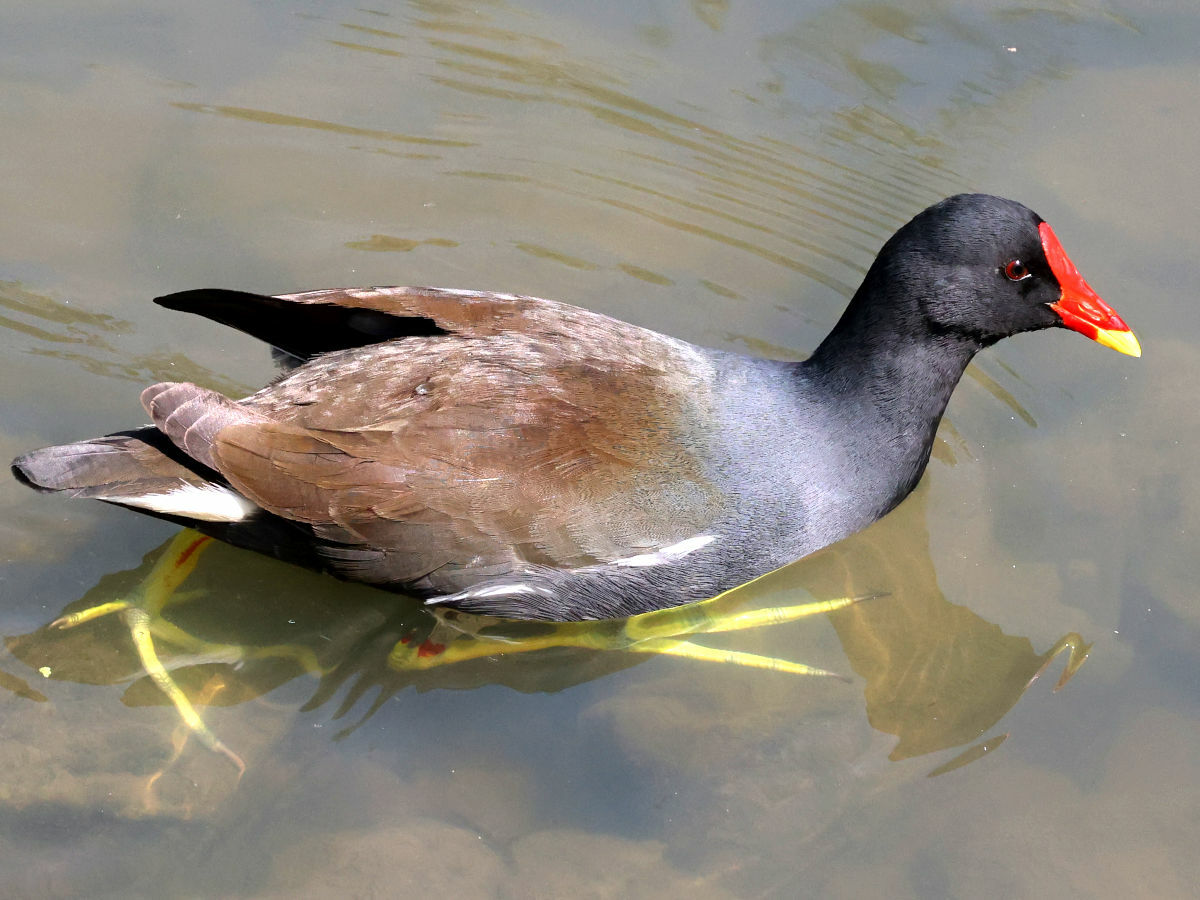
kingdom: Animalia
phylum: Chordata
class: Aves
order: Gruiformes
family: Rallidae
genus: Gallinula
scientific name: Gallinula chloropus
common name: Common moorhen
